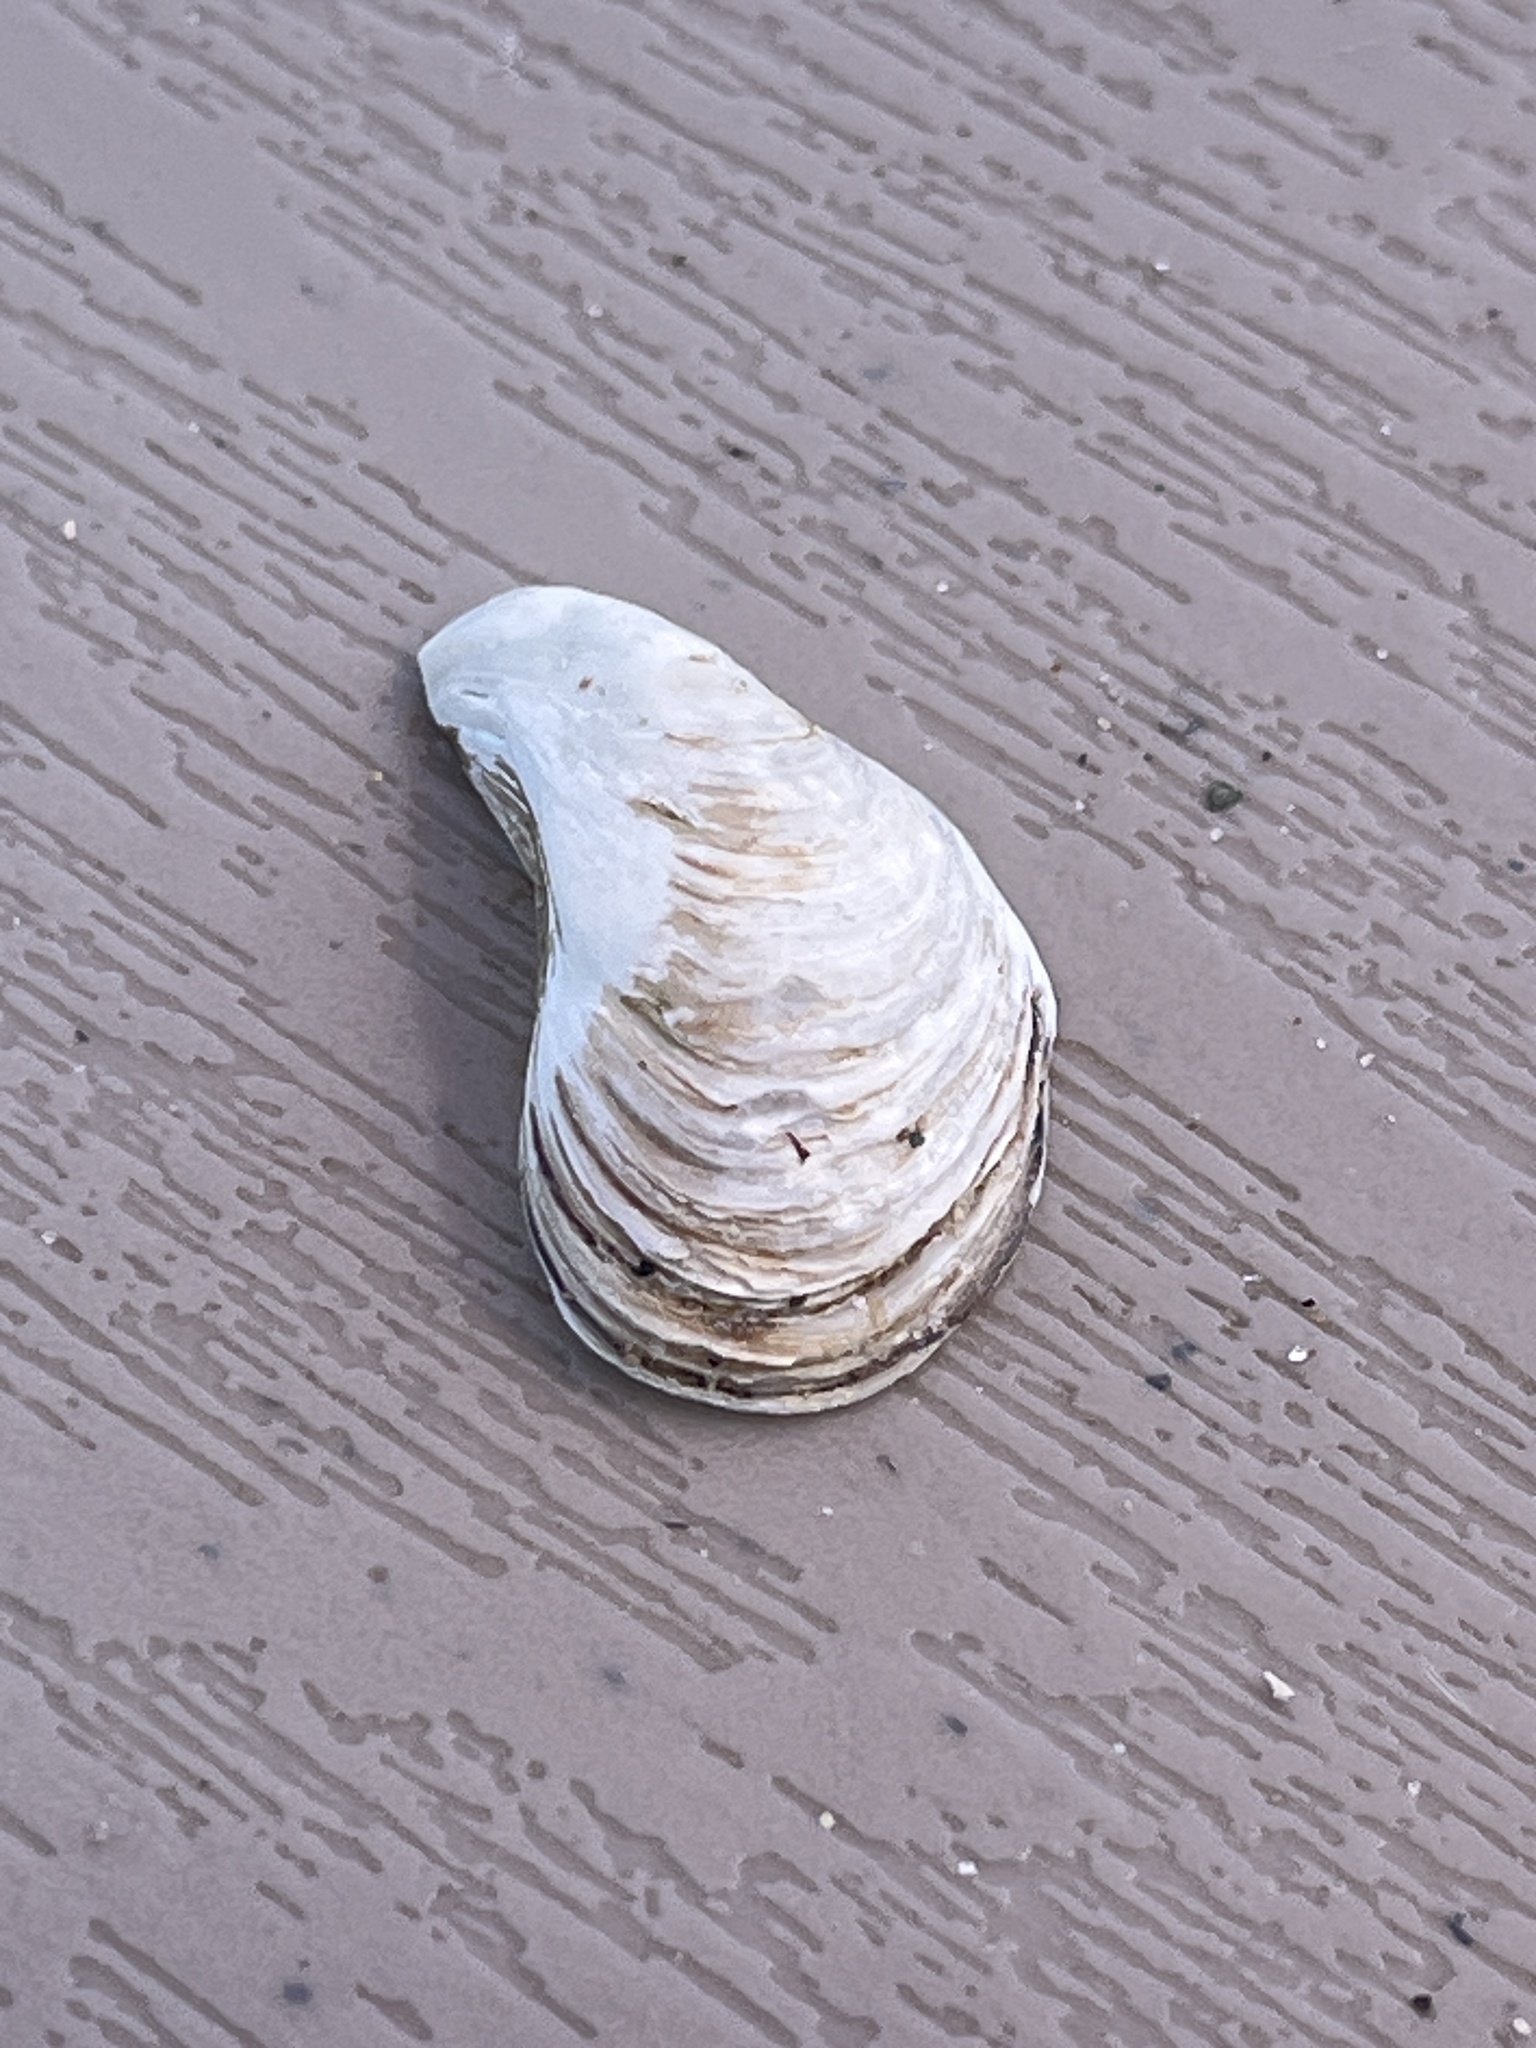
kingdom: Animalia
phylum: Mollusca
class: Bivalvia
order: Myida
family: Dreissenidae
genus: Dreissena
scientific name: Dreissena bugensis
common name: Quagga mussel
